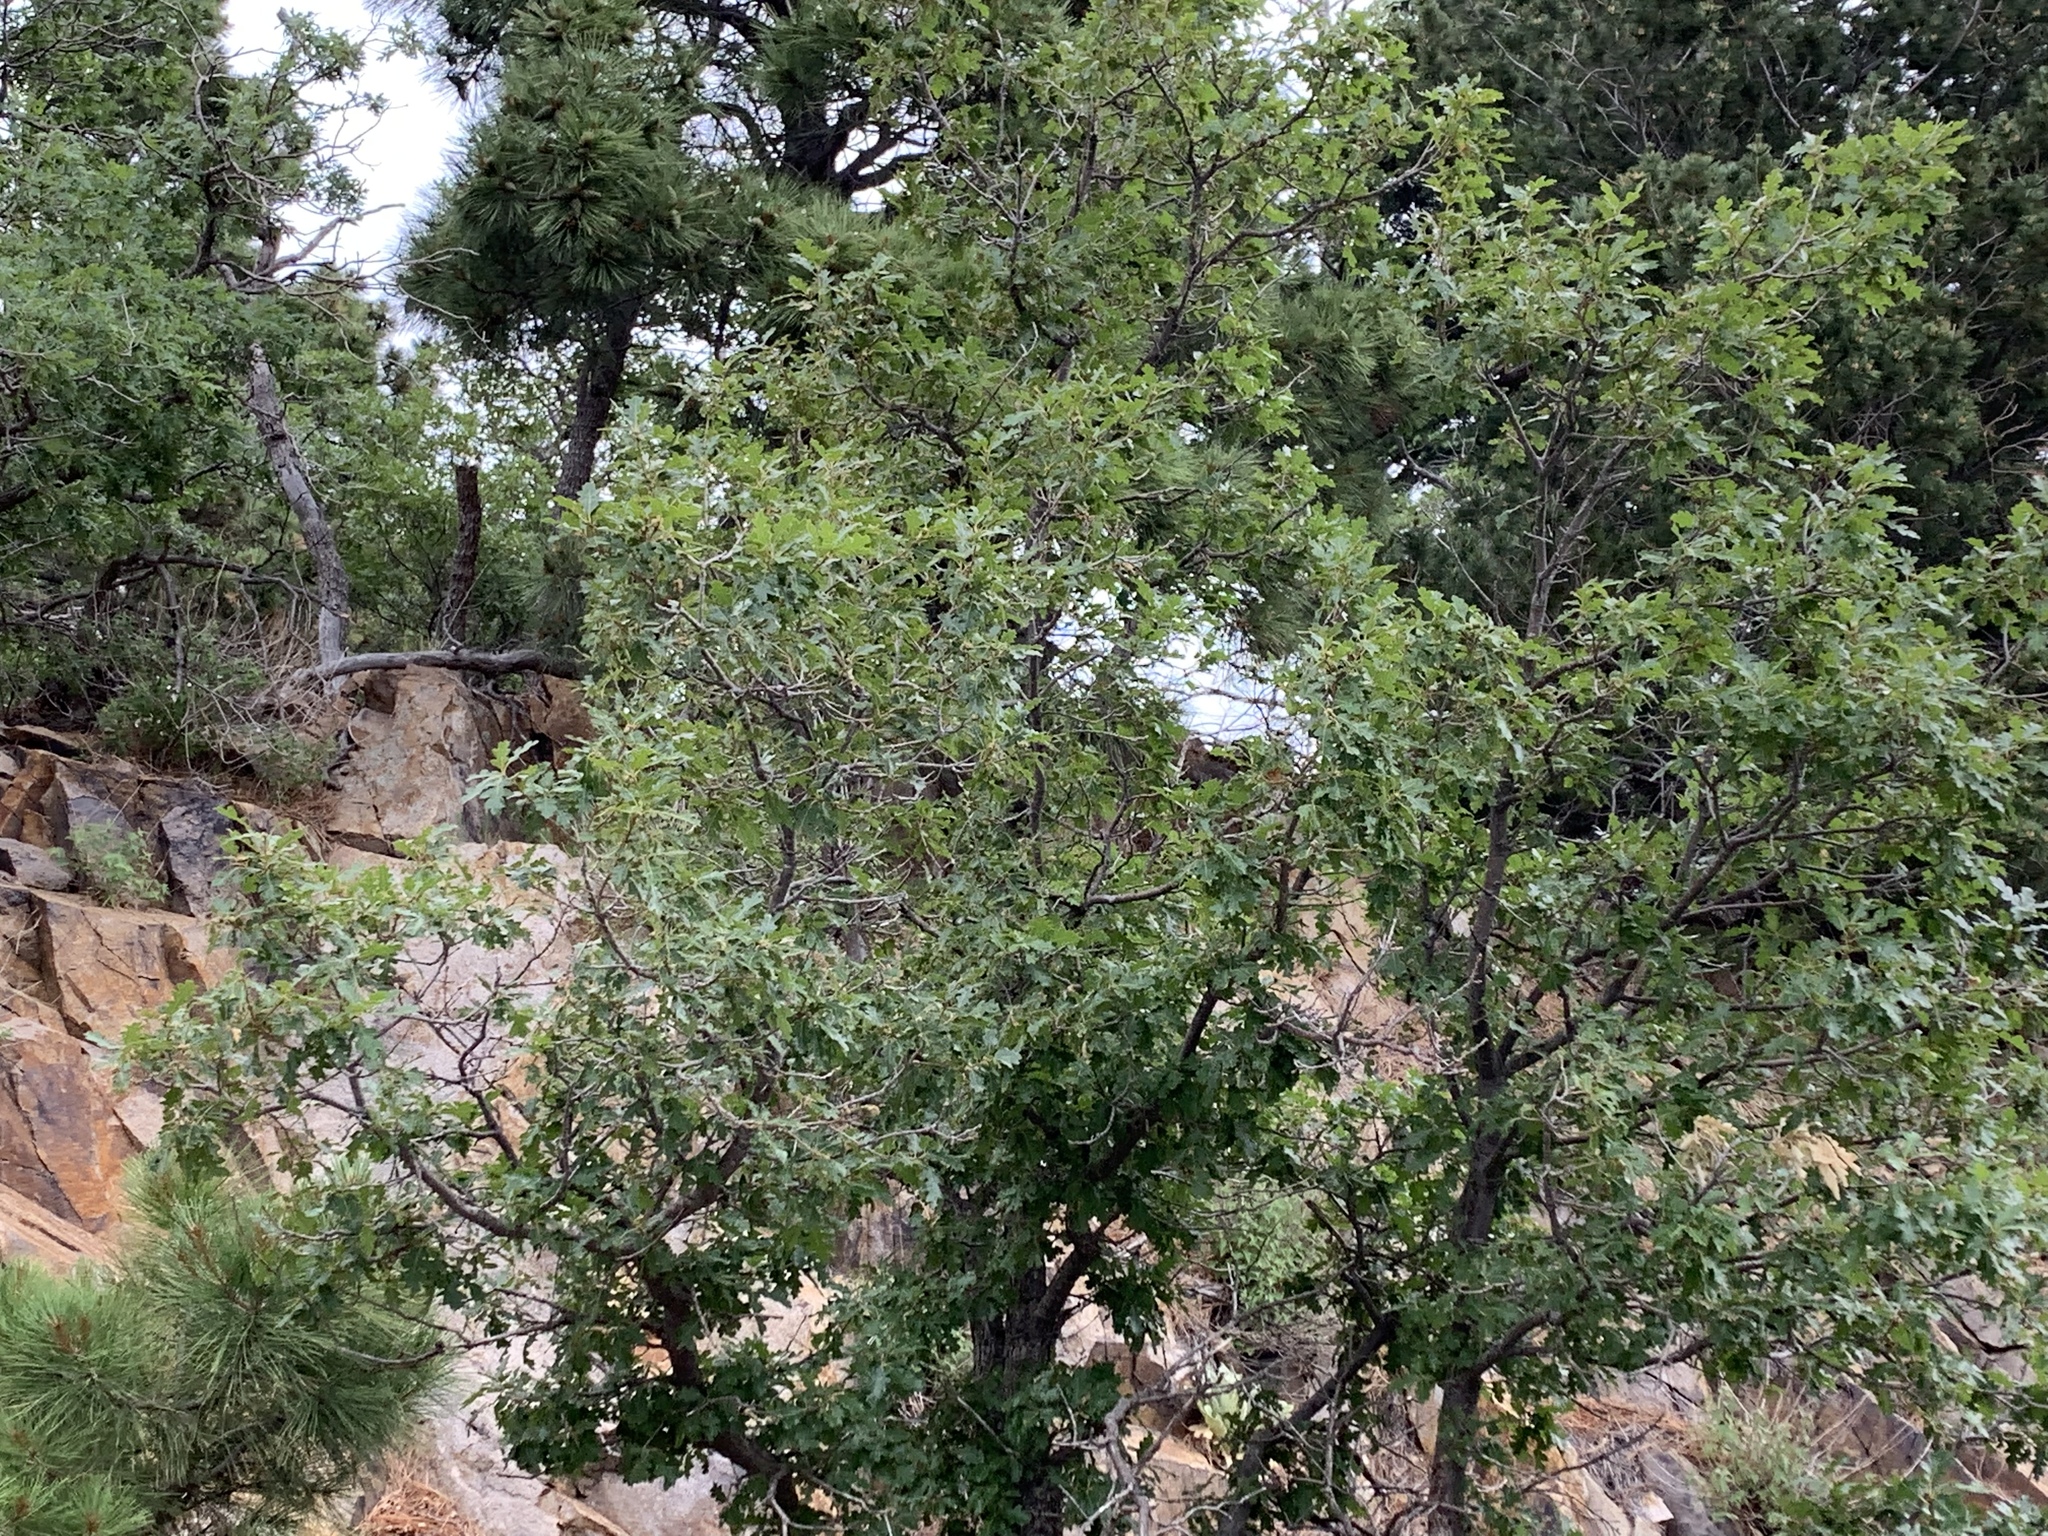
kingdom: Plantae
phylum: Tracheophyta
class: Magnoliopsida
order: Fagales
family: Fagaceae
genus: Quercus
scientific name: Quercus gambelii
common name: Gambel oak
